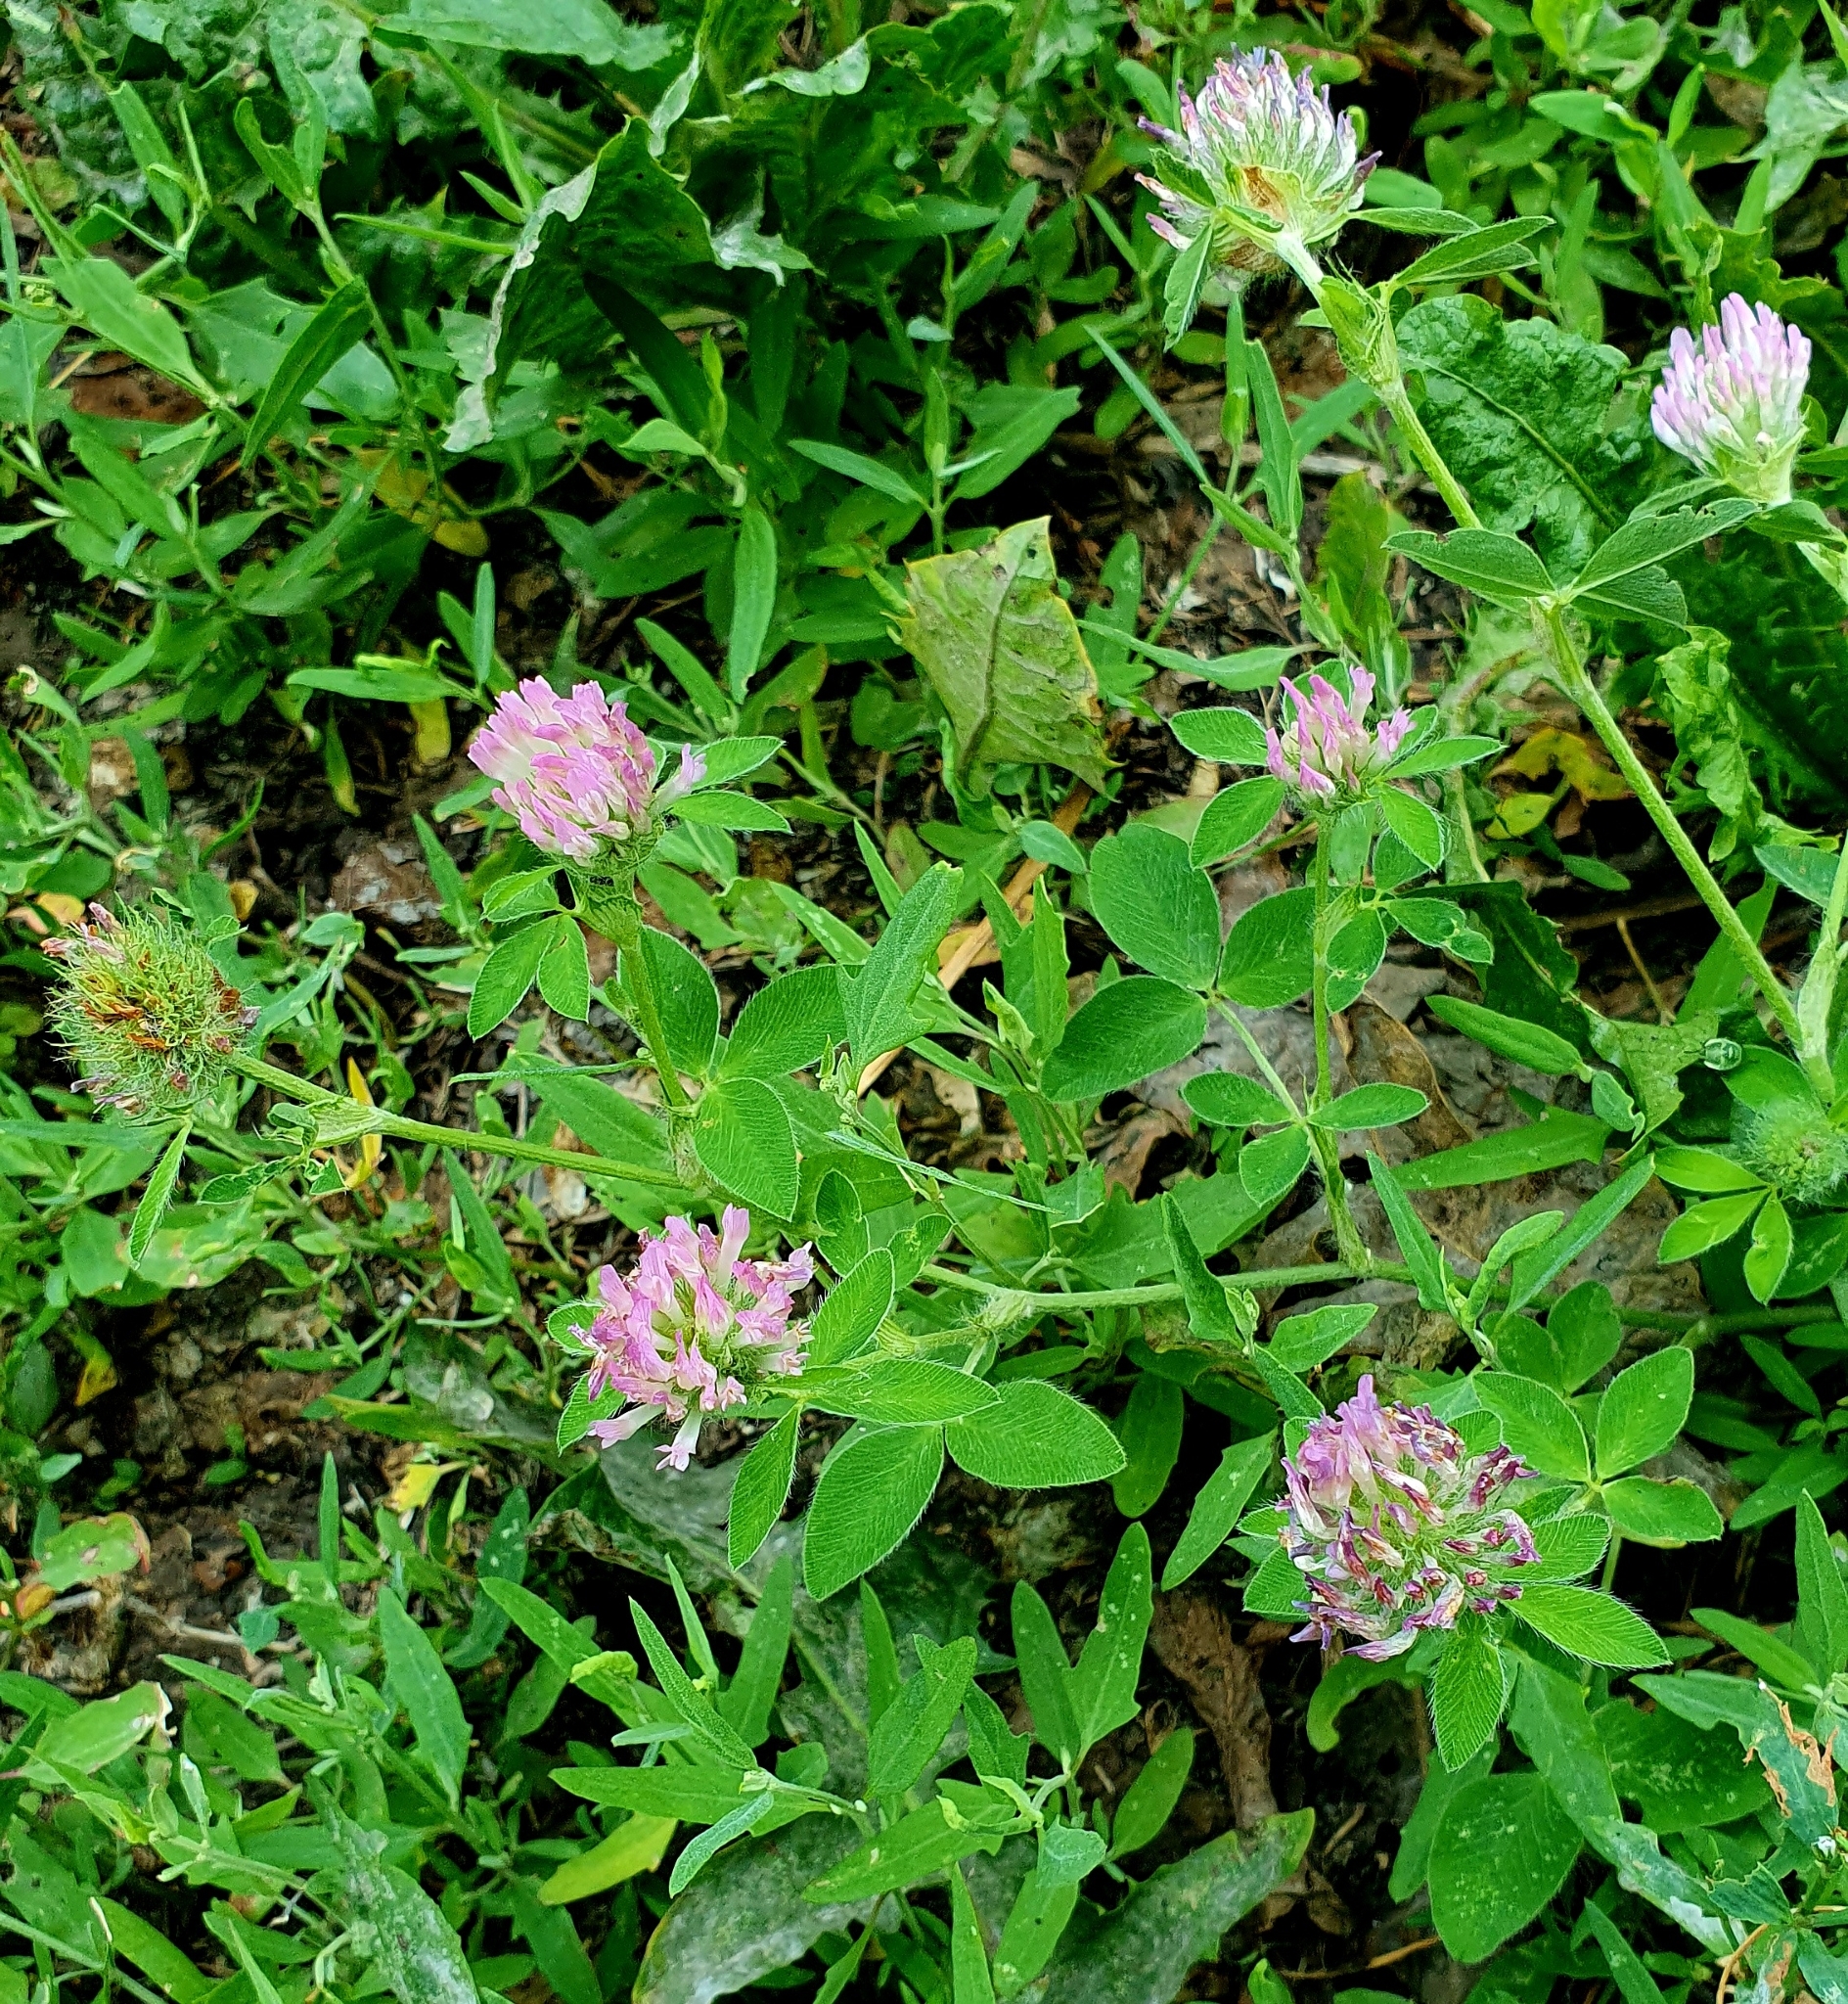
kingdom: Plantae
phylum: Tracheophyta
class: Magnoliopsida
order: Fabales
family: Fabaceae
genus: Trifolium
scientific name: Trifolium pratense
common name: Red clover
